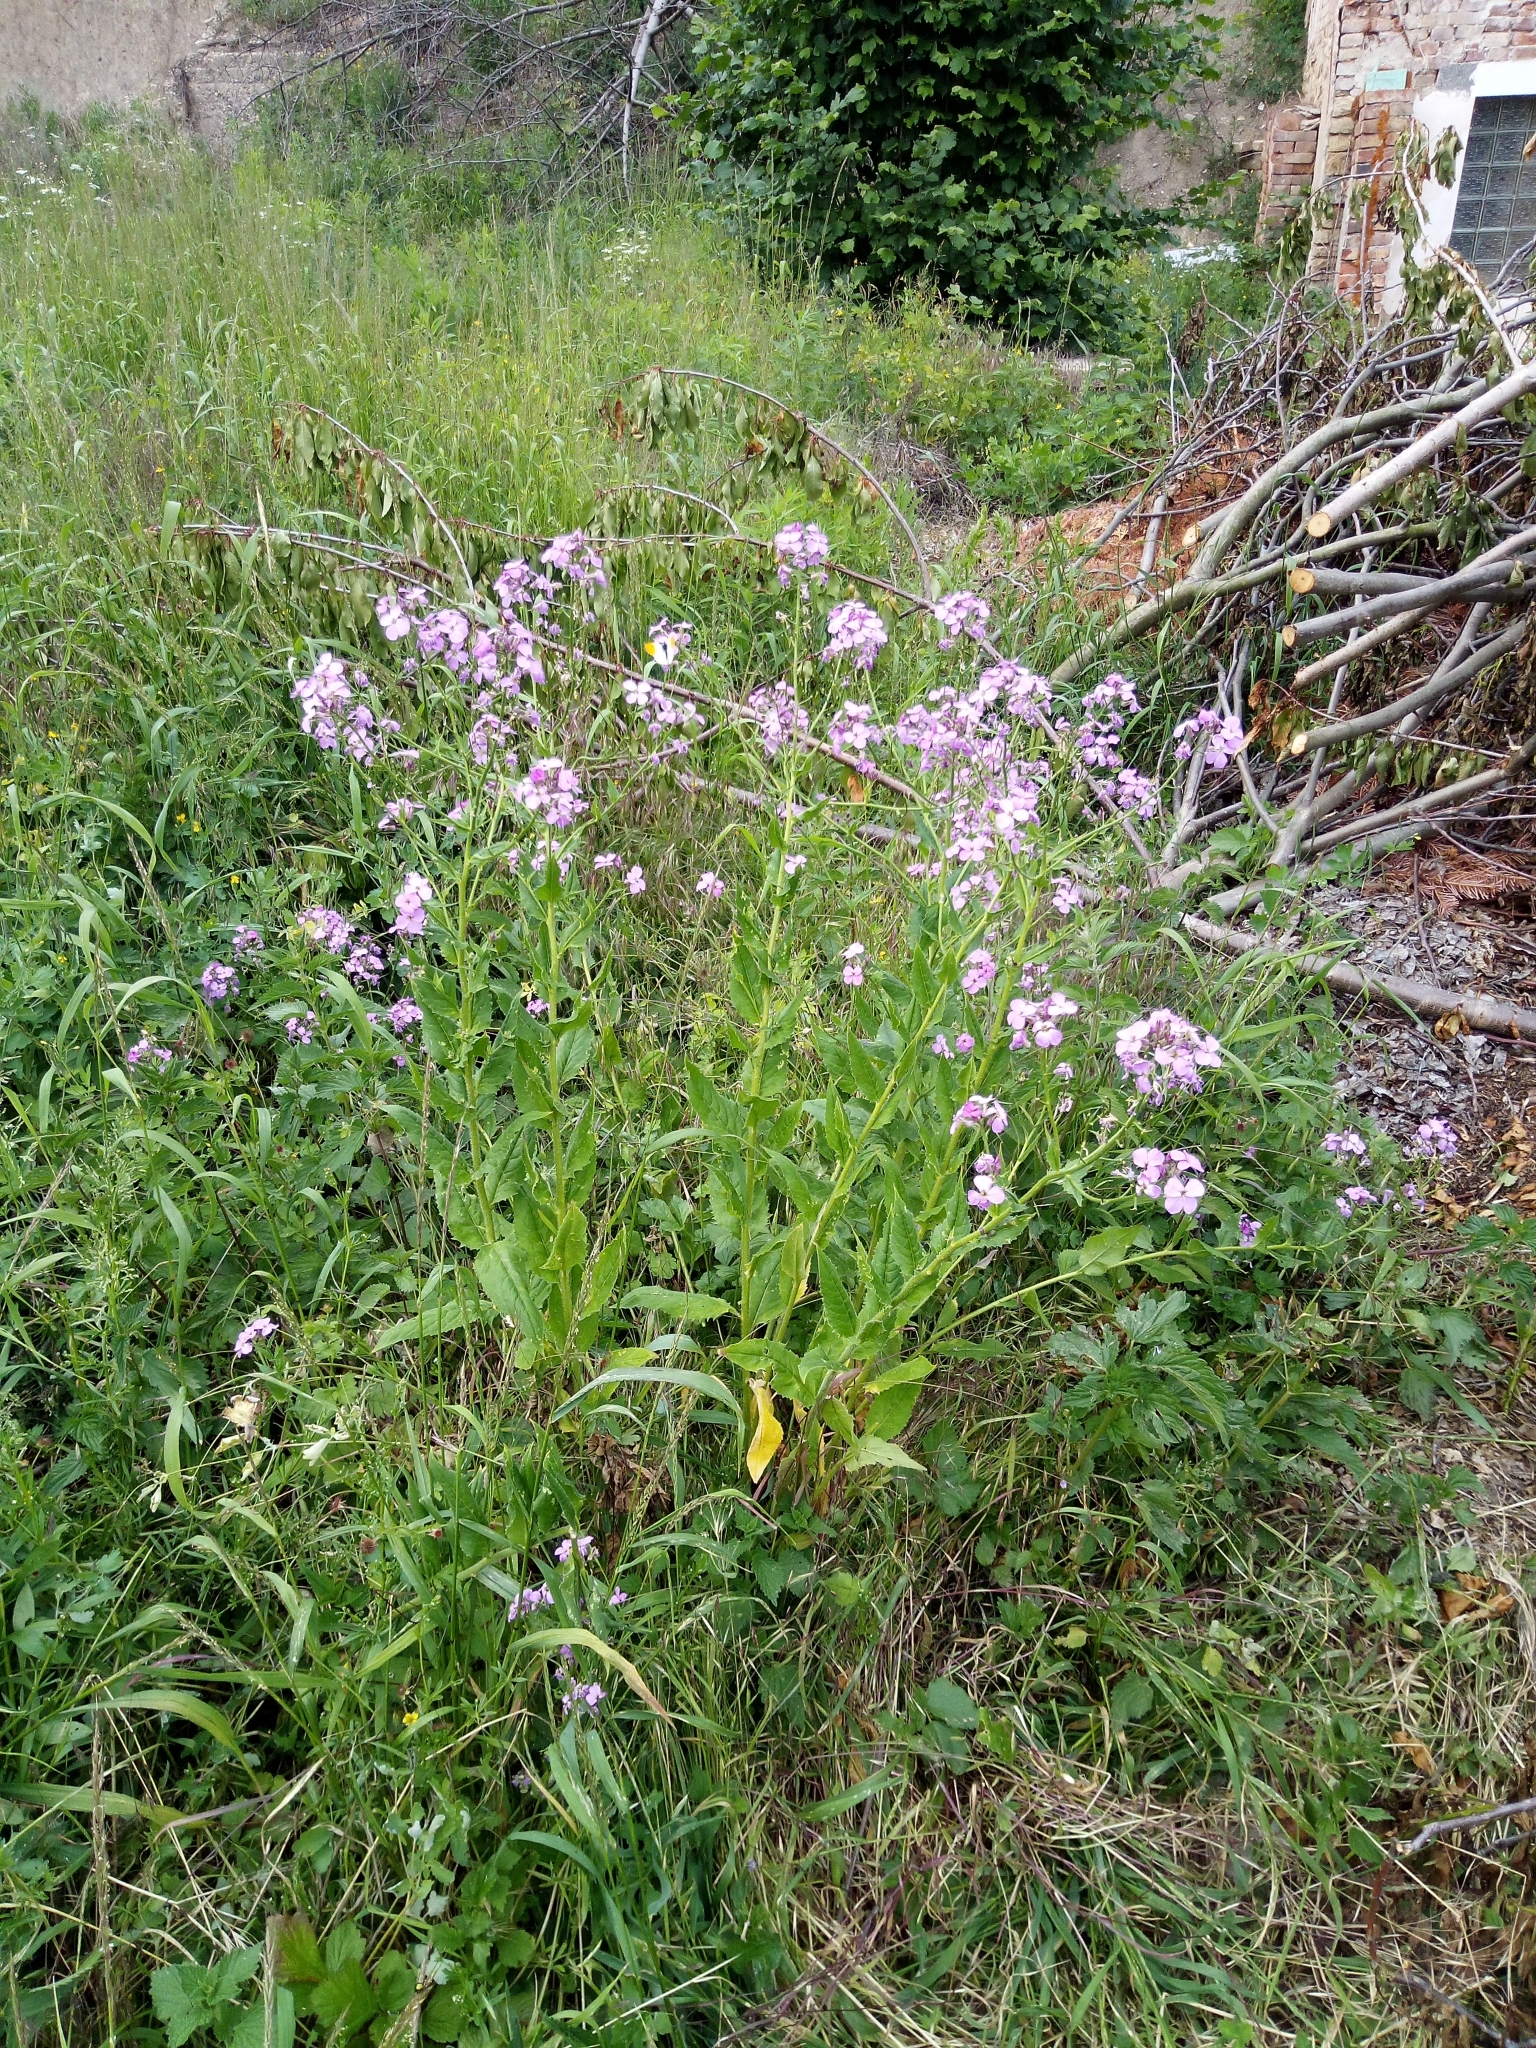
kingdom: Plantae
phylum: Tracheophyta
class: Magnoliopsida
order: Brassicales
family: Brassicaceae
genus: Hesperis
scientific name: Hesperis matronalis
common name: Dame's-violet
